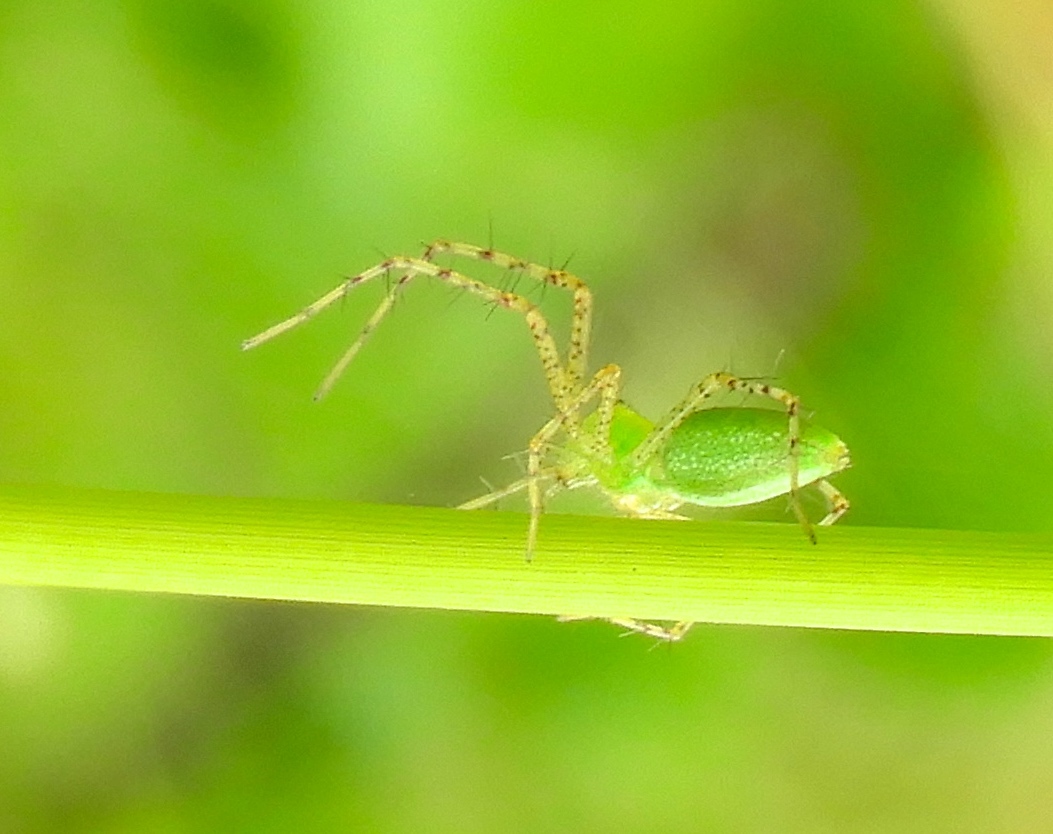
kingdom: Animalia
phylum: Arthropoda
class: Arachnida
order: Araneae
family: Oxyopidae
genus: Peucetia
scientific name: Peucetia
